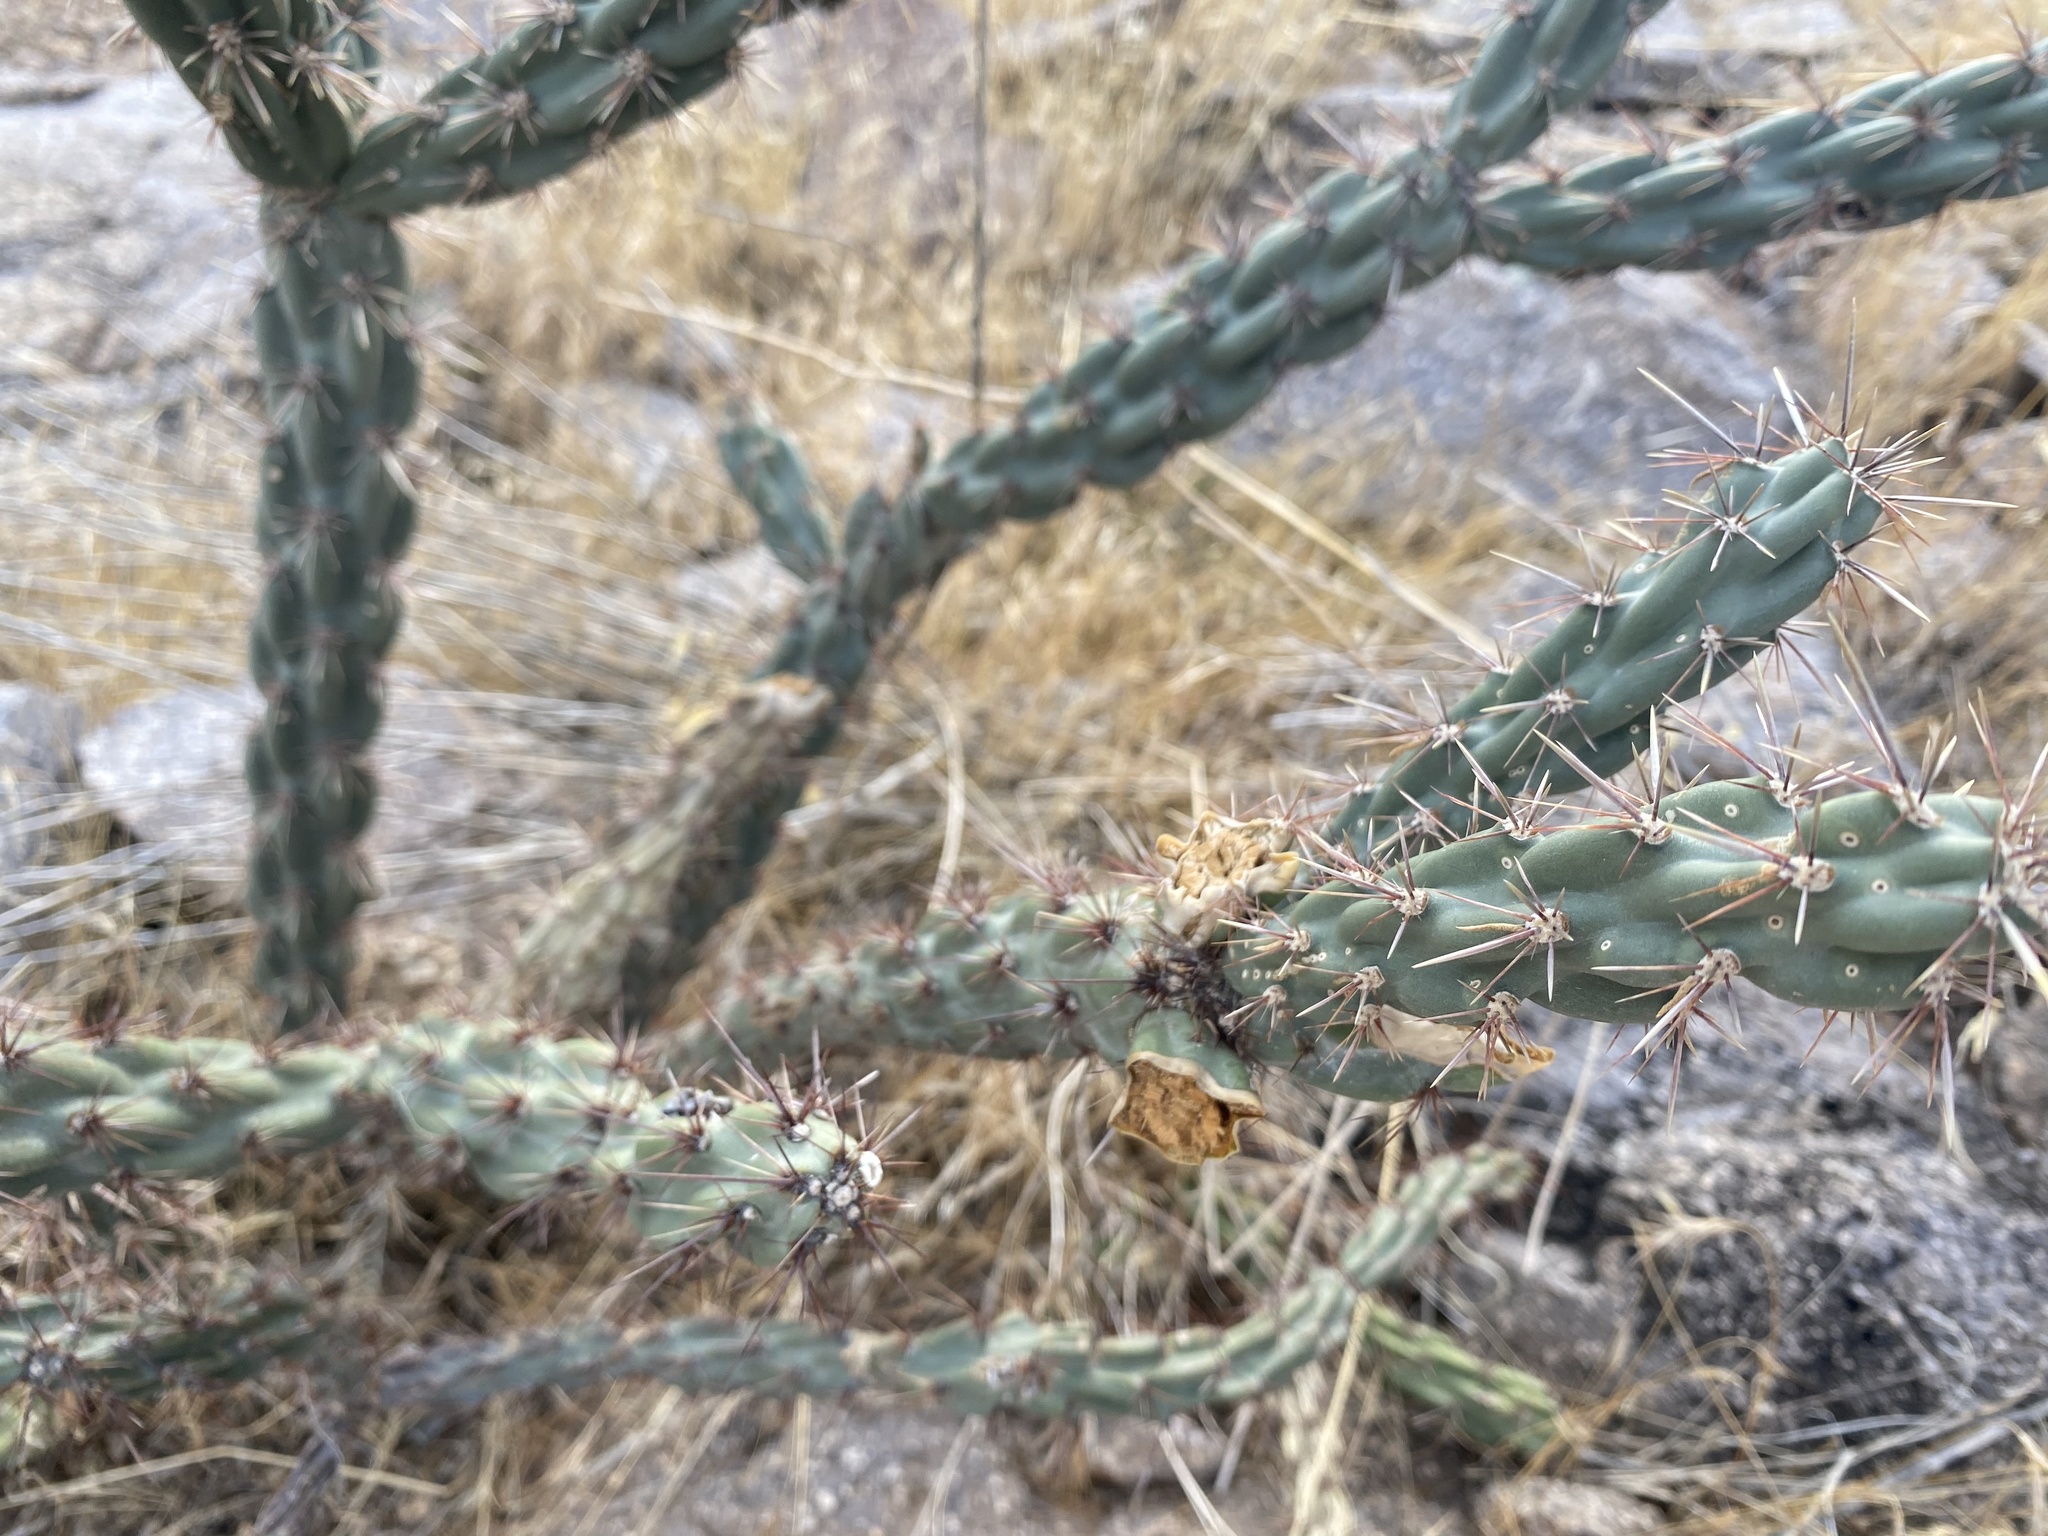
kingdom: Plantae
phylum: Tracheophyta
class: Magnoliopsida
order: Caryophyllales
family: Cactaceae
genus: Cylindropuntia
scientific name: Cylindropuntia acanthocarpa
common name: Buckhorn cholla
